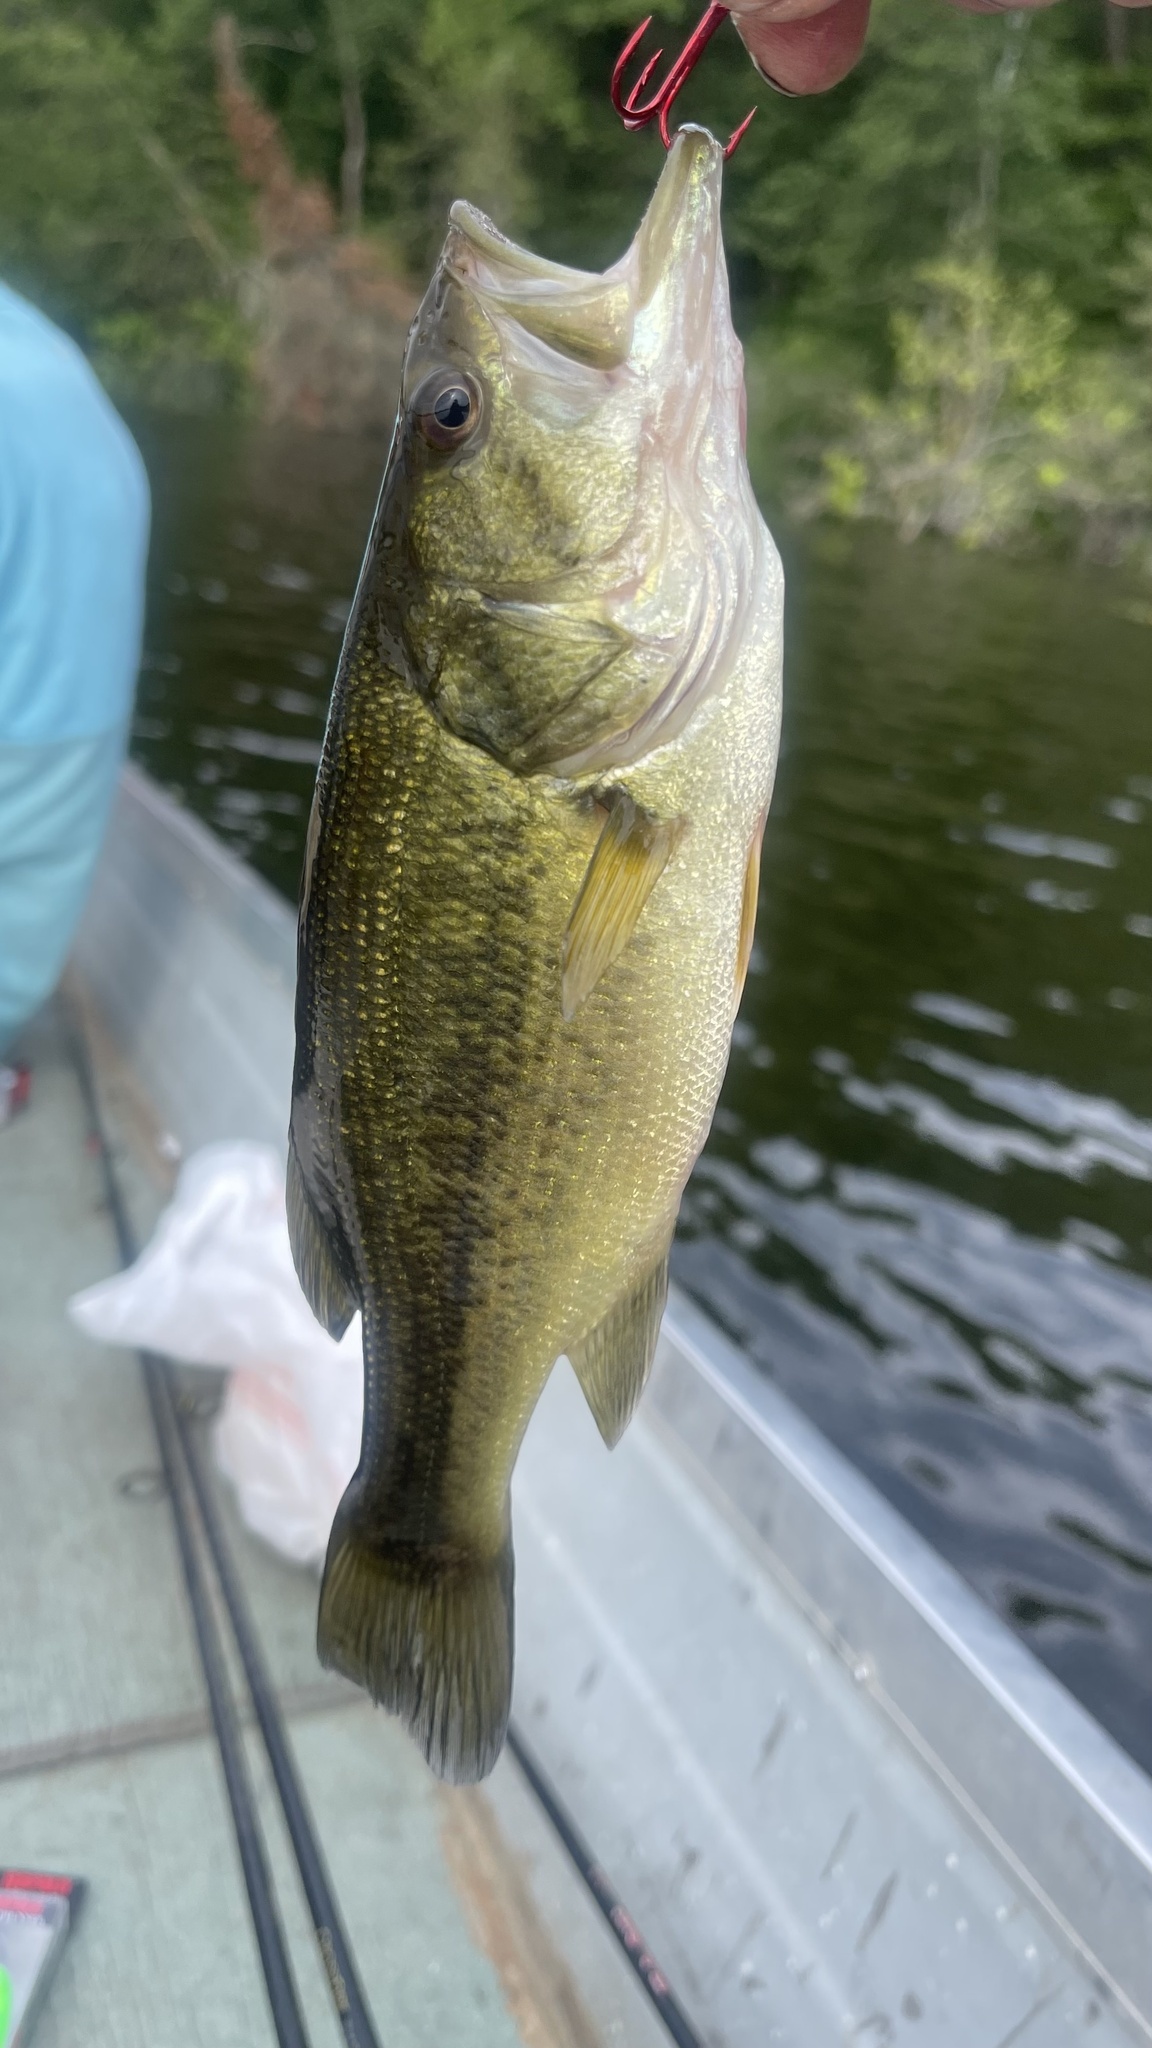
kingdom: Animalia
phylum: Chordata
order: Perciformes
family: Centrarchidae
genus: Micropterus
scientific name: Micropterus
